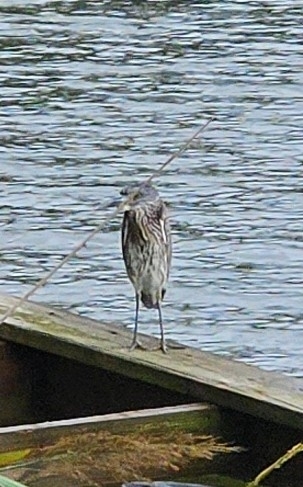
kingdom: Animalia
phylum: Chordata
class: Aves
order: Pelecaniformes
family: Ardeidae
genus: Nyctanassa
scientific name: Nyctanassa violacea
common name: Yellow-crowned night heron
